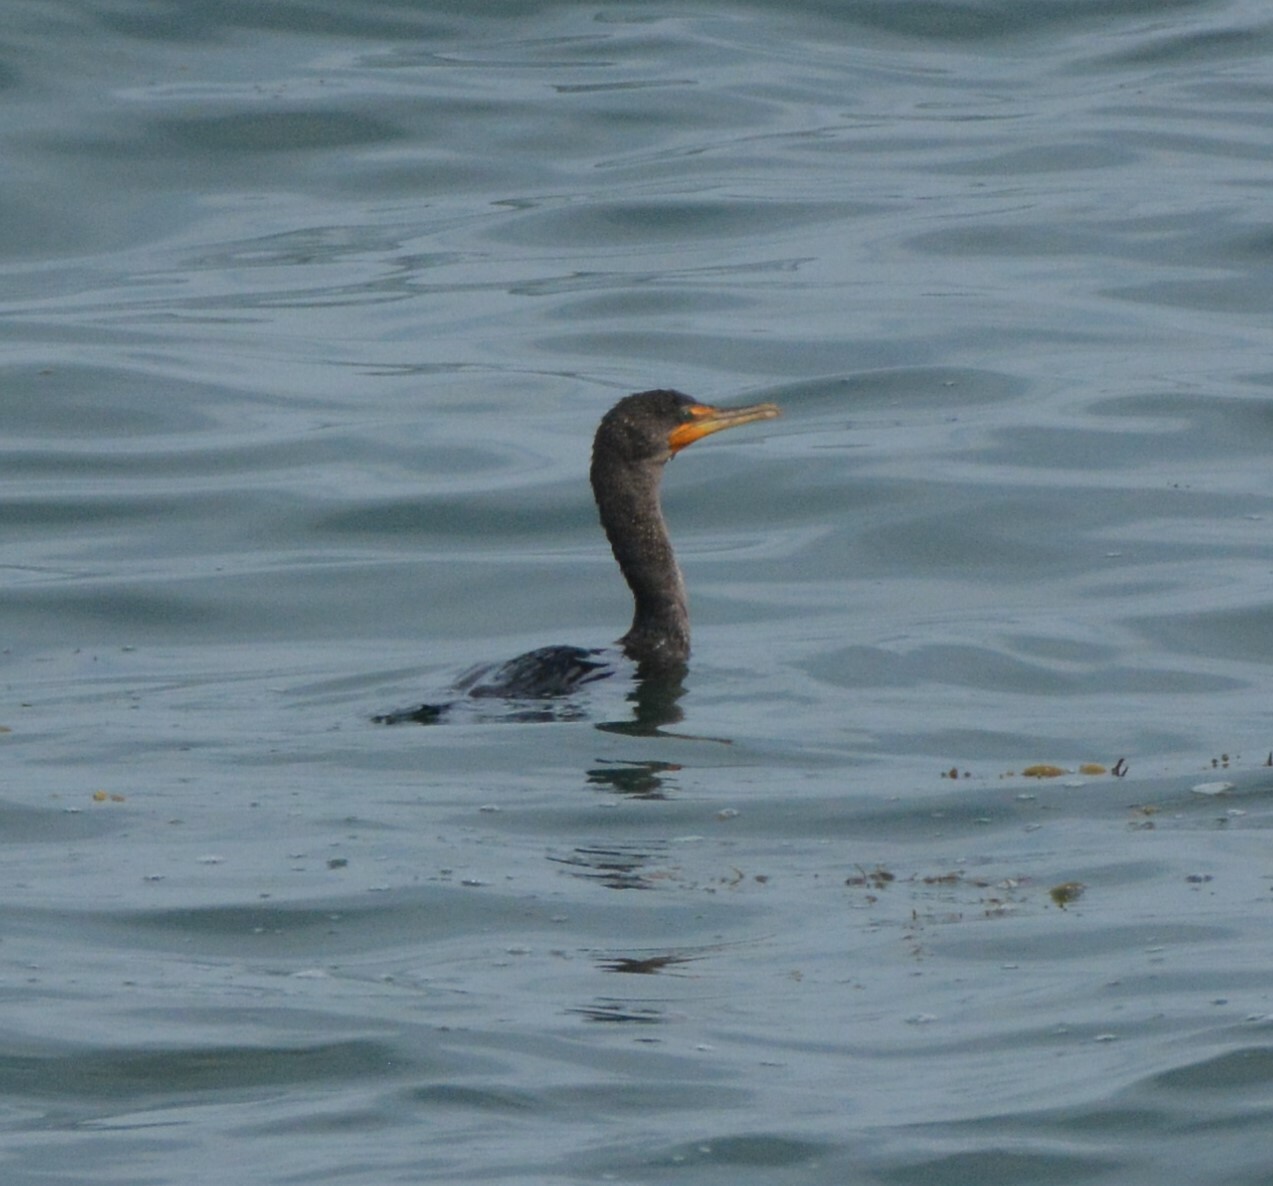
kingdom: Animalia
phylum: Chordata
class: Aves
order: Suliformes
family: Phalacrocoracidae
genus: Phalacrocorax
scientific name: Phalacrocorax auritus
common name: Double-crested cormorant
